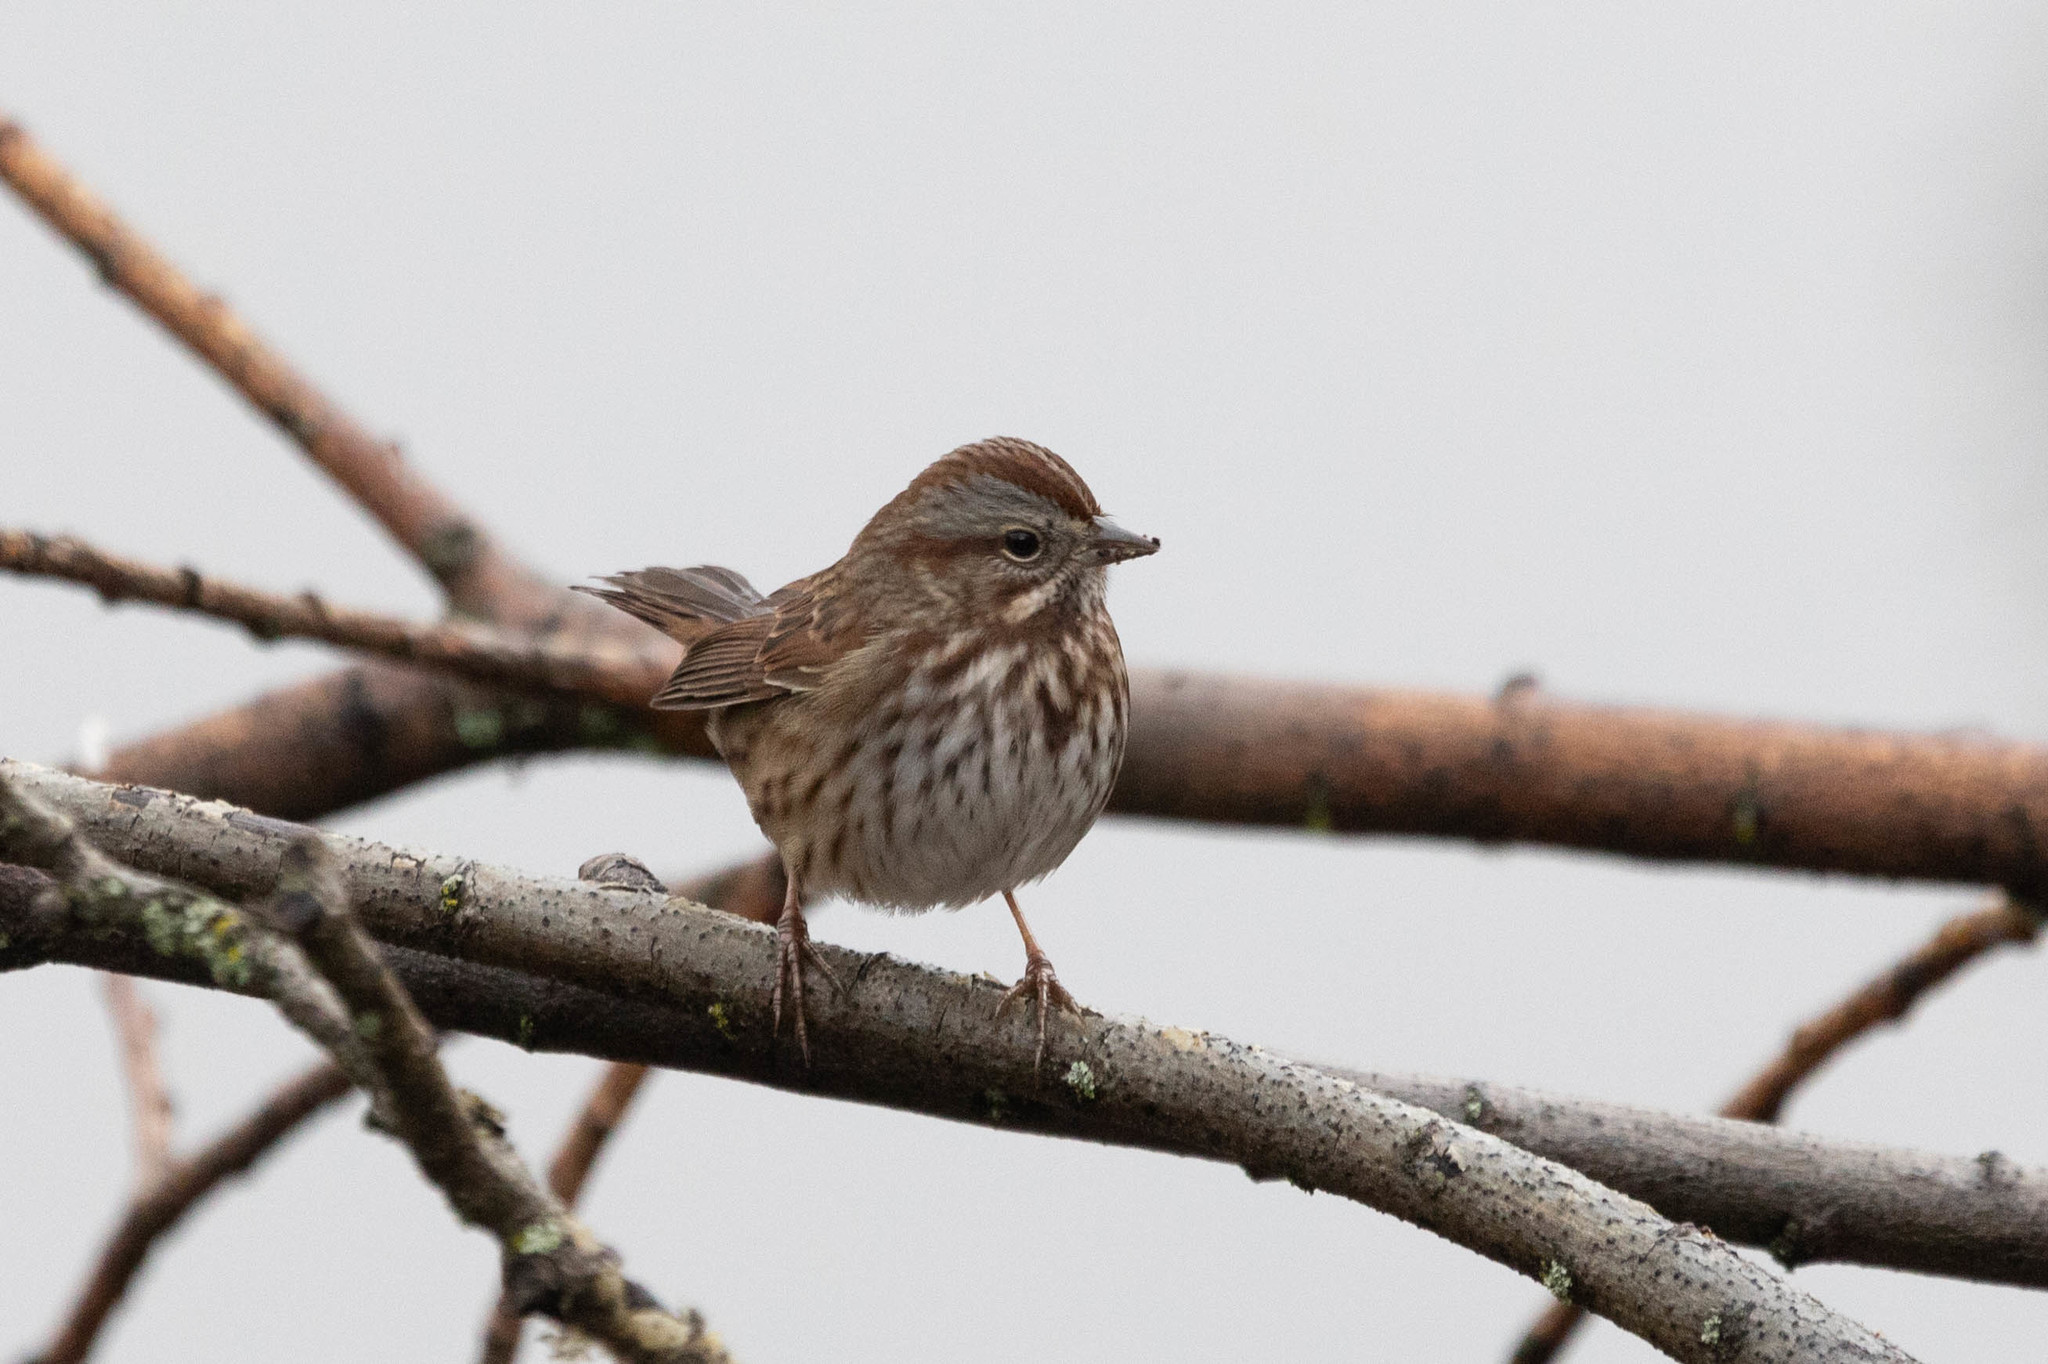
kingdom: Animalia
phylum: Chordata
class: Aves
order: Passeriformes
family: Passerellidae
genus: Melospiza
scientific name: Melospiza melodia
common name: Song sparrow
